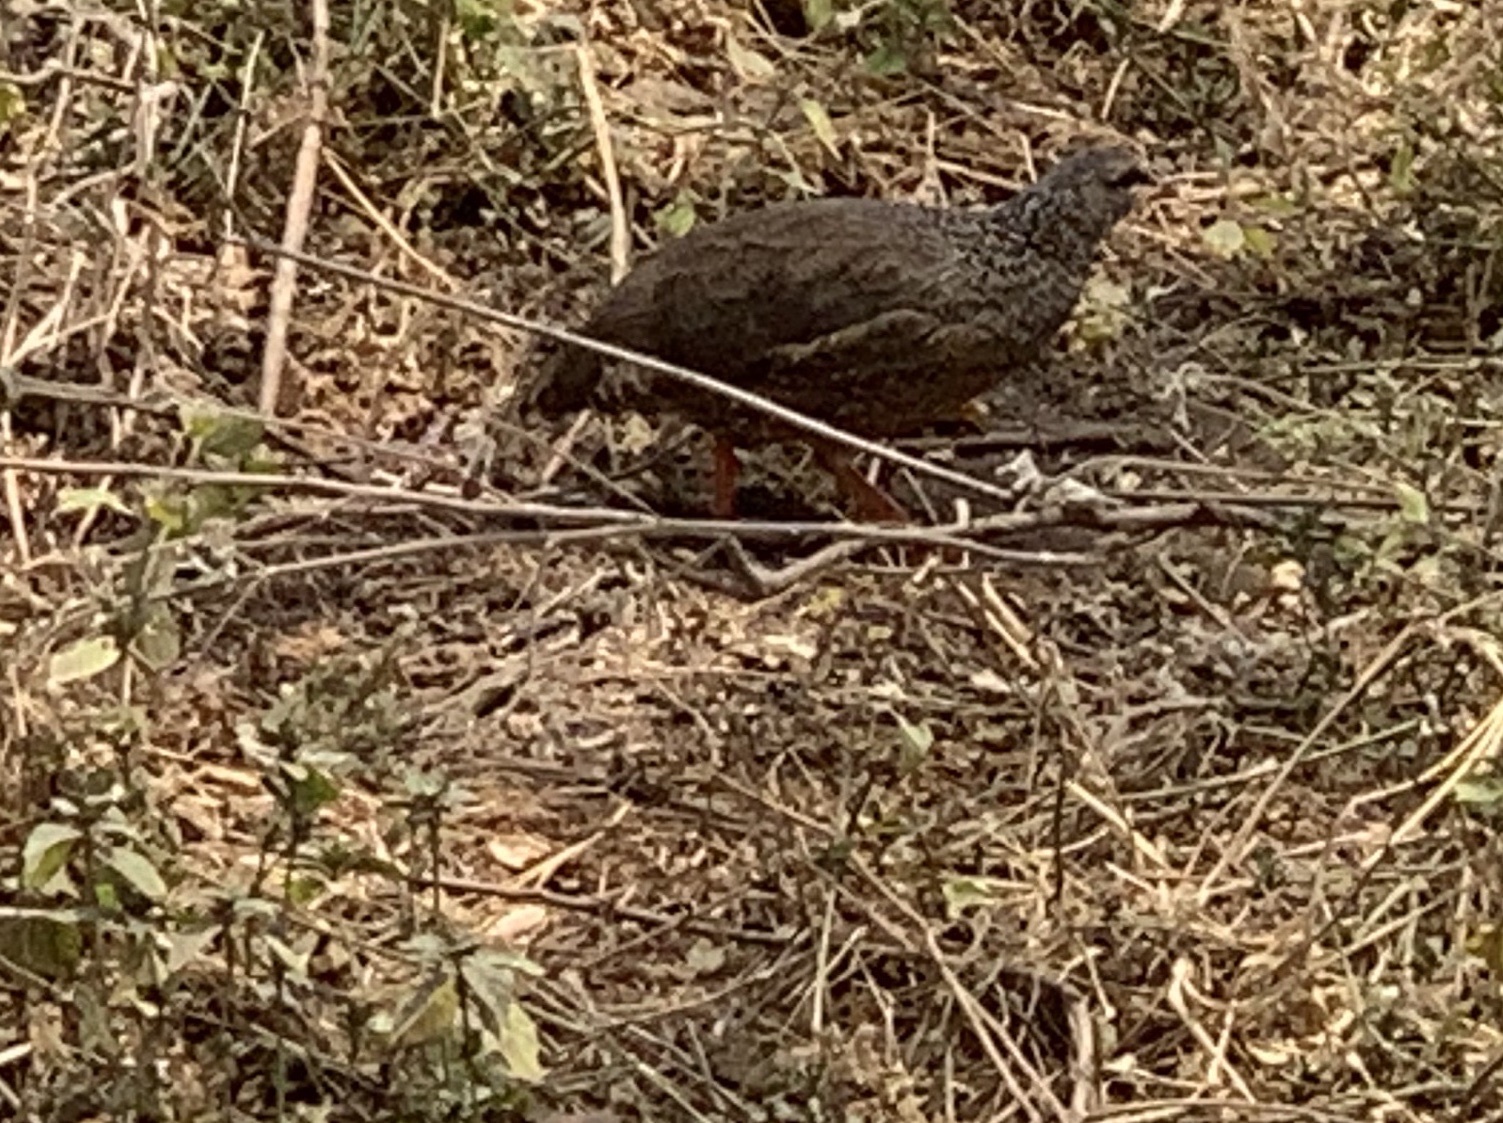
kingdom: Animalia
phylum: Chordata
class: Aves
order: Galliformes
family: Phasianidae
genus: Pternistis
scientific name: Pternistis hildebrandti
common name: Hildebrandt's francolin
